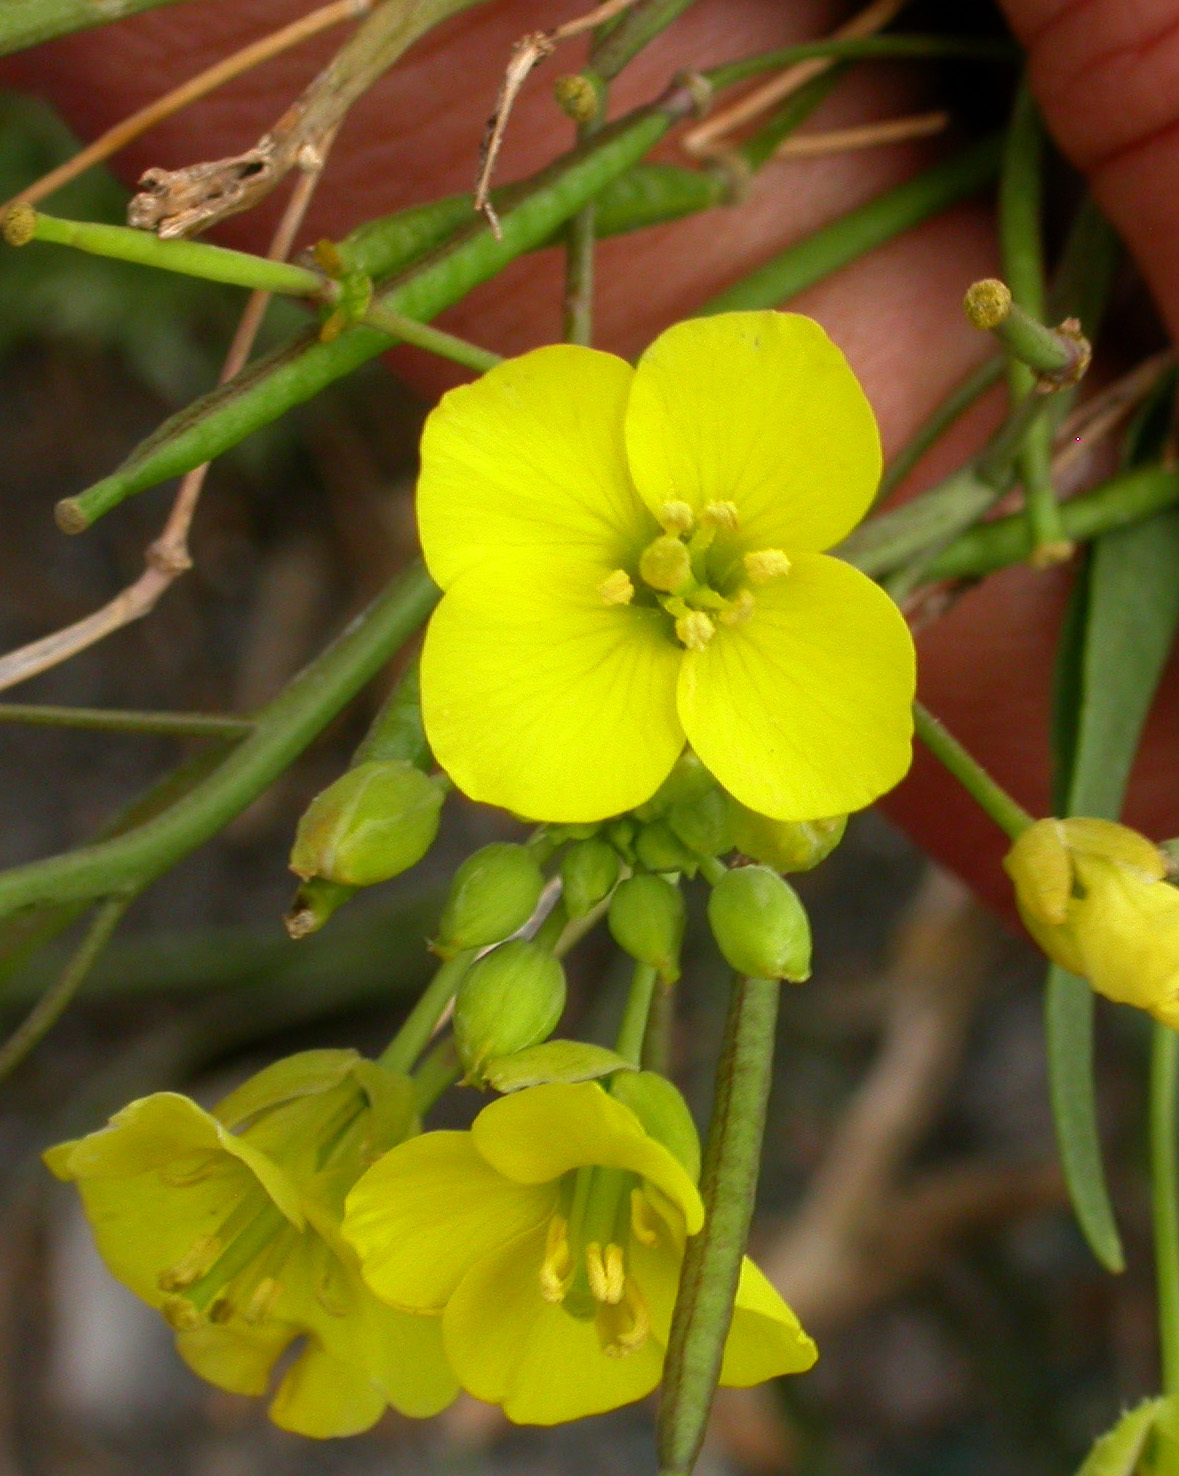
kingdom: Plantae
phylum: Tracheophyta
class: Magnoliopsida
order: Brassicales
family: Brassicaceae
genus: Diplotaxis
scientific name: Diplotaxis tenuifolia
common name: Perennial wall-rocket
